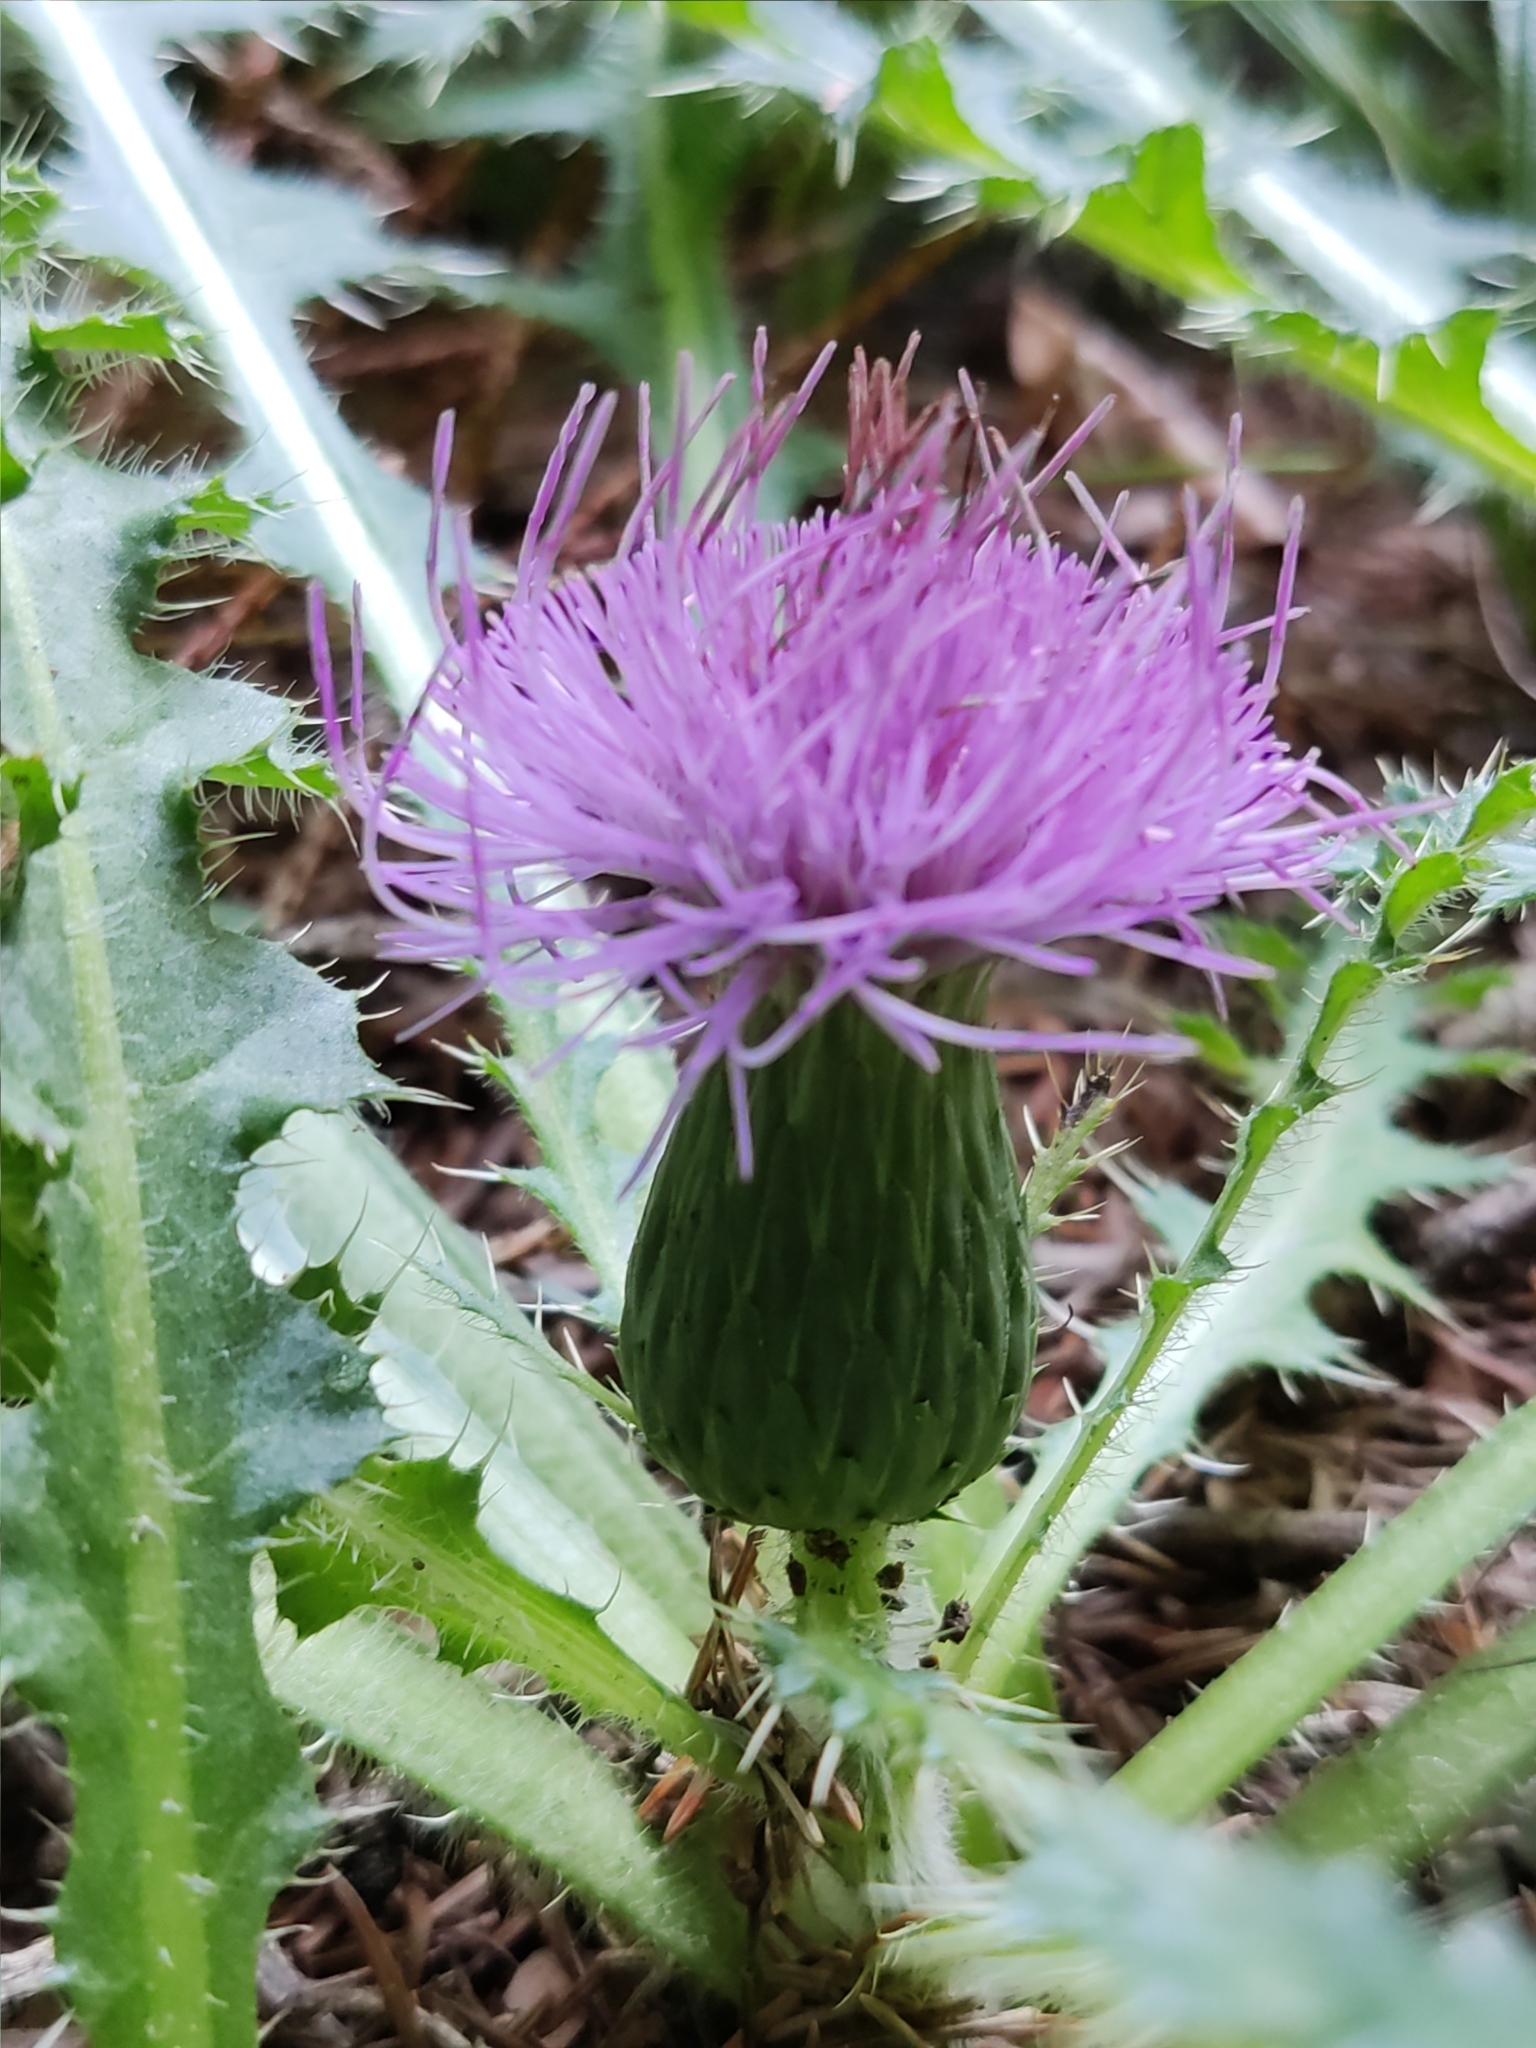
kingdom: Plantae
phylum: Tracheophyta
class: Magnoliopsida
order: Asterales
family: Asteraceae
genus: Cirsium
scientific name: Cirsium acaulon
